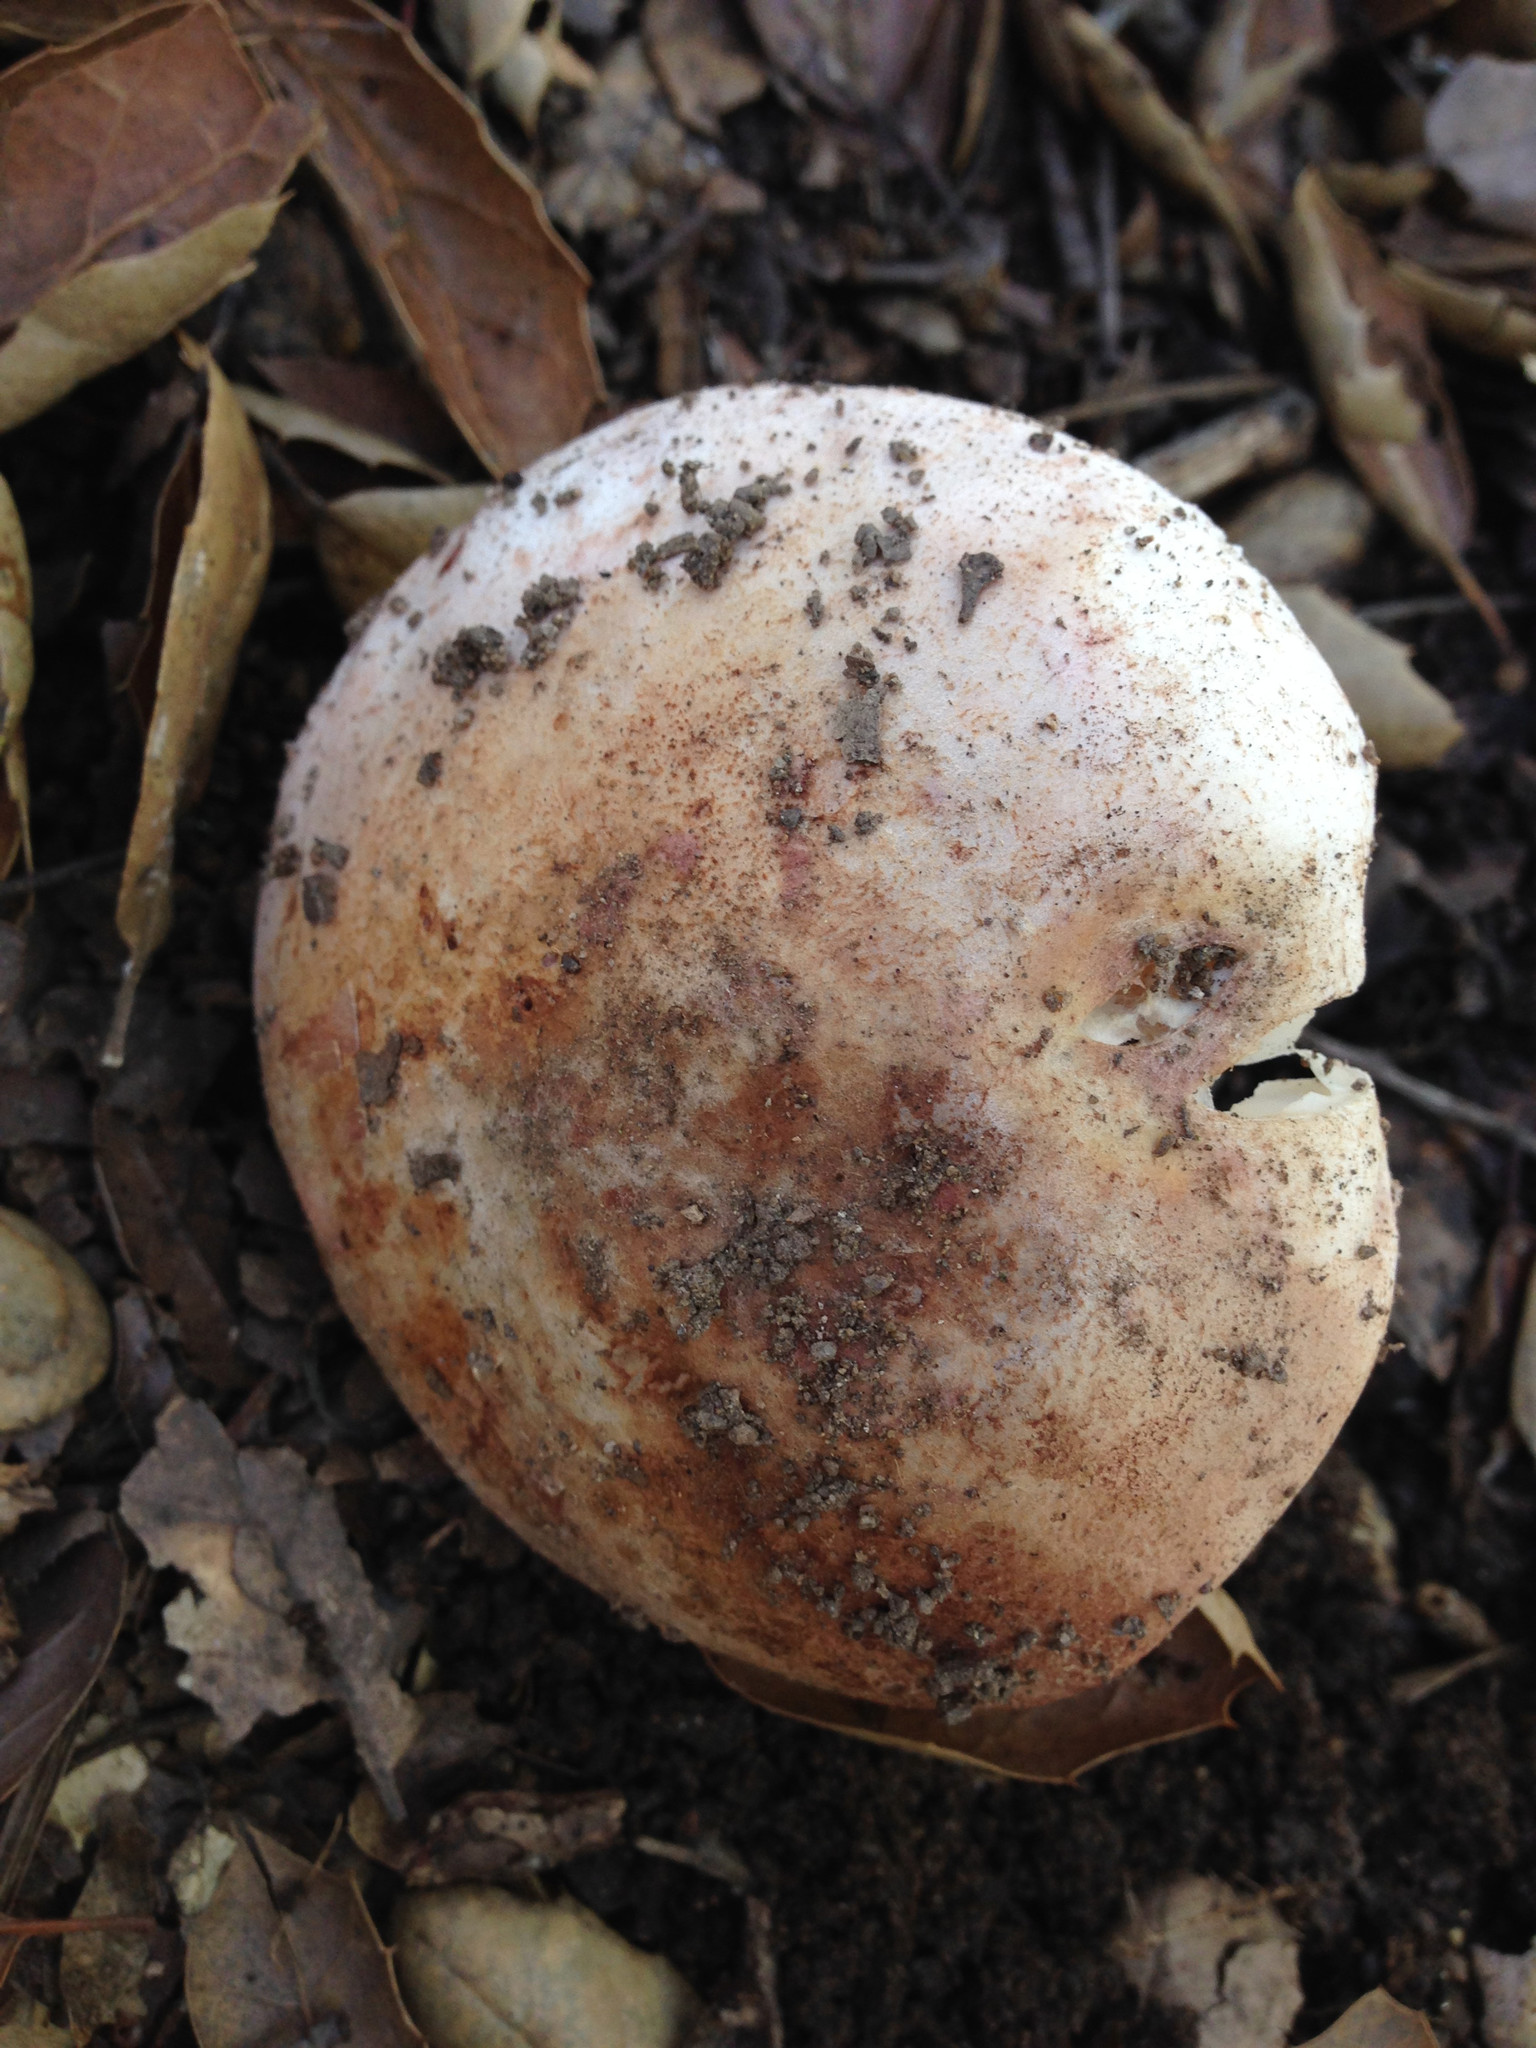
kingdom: Fungi
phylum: Basidiomycota
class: Agaricomycetes
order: Agaricales
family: Amanitaceae
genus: Amanita
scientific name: Amanita novinupta
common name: Blushing bride
